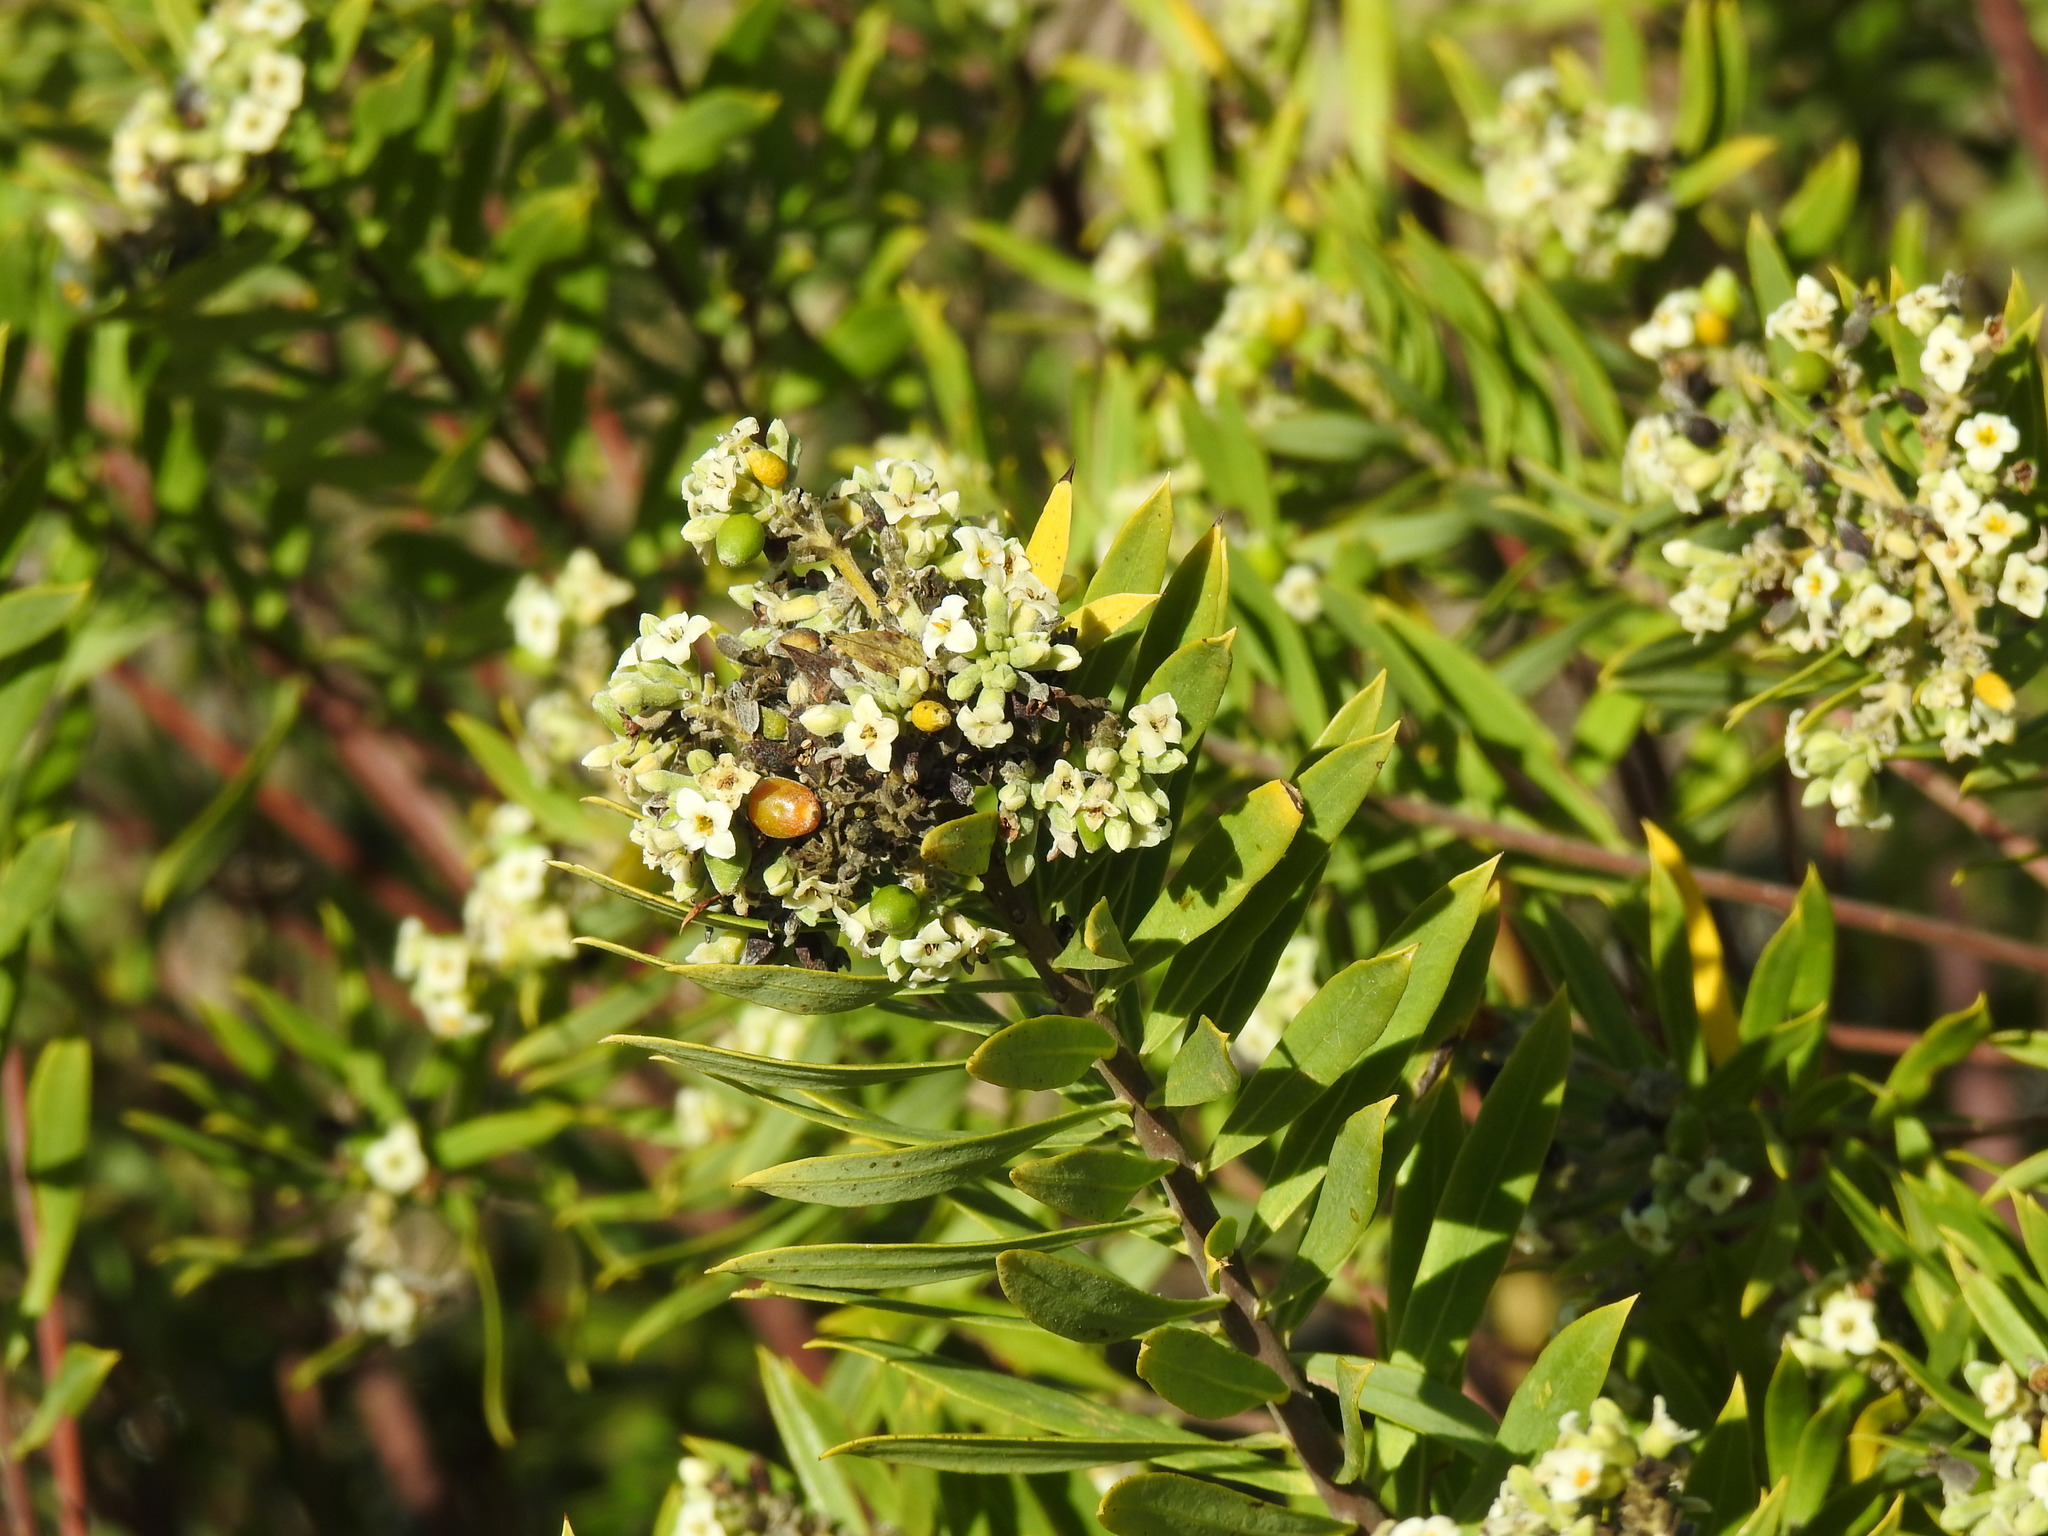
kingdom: Plantae
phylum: Tracheophyta
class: Magnoliopsida
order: Malvales
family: Thymelaeaceae
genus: Daphne
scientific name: Daphne gnidium
